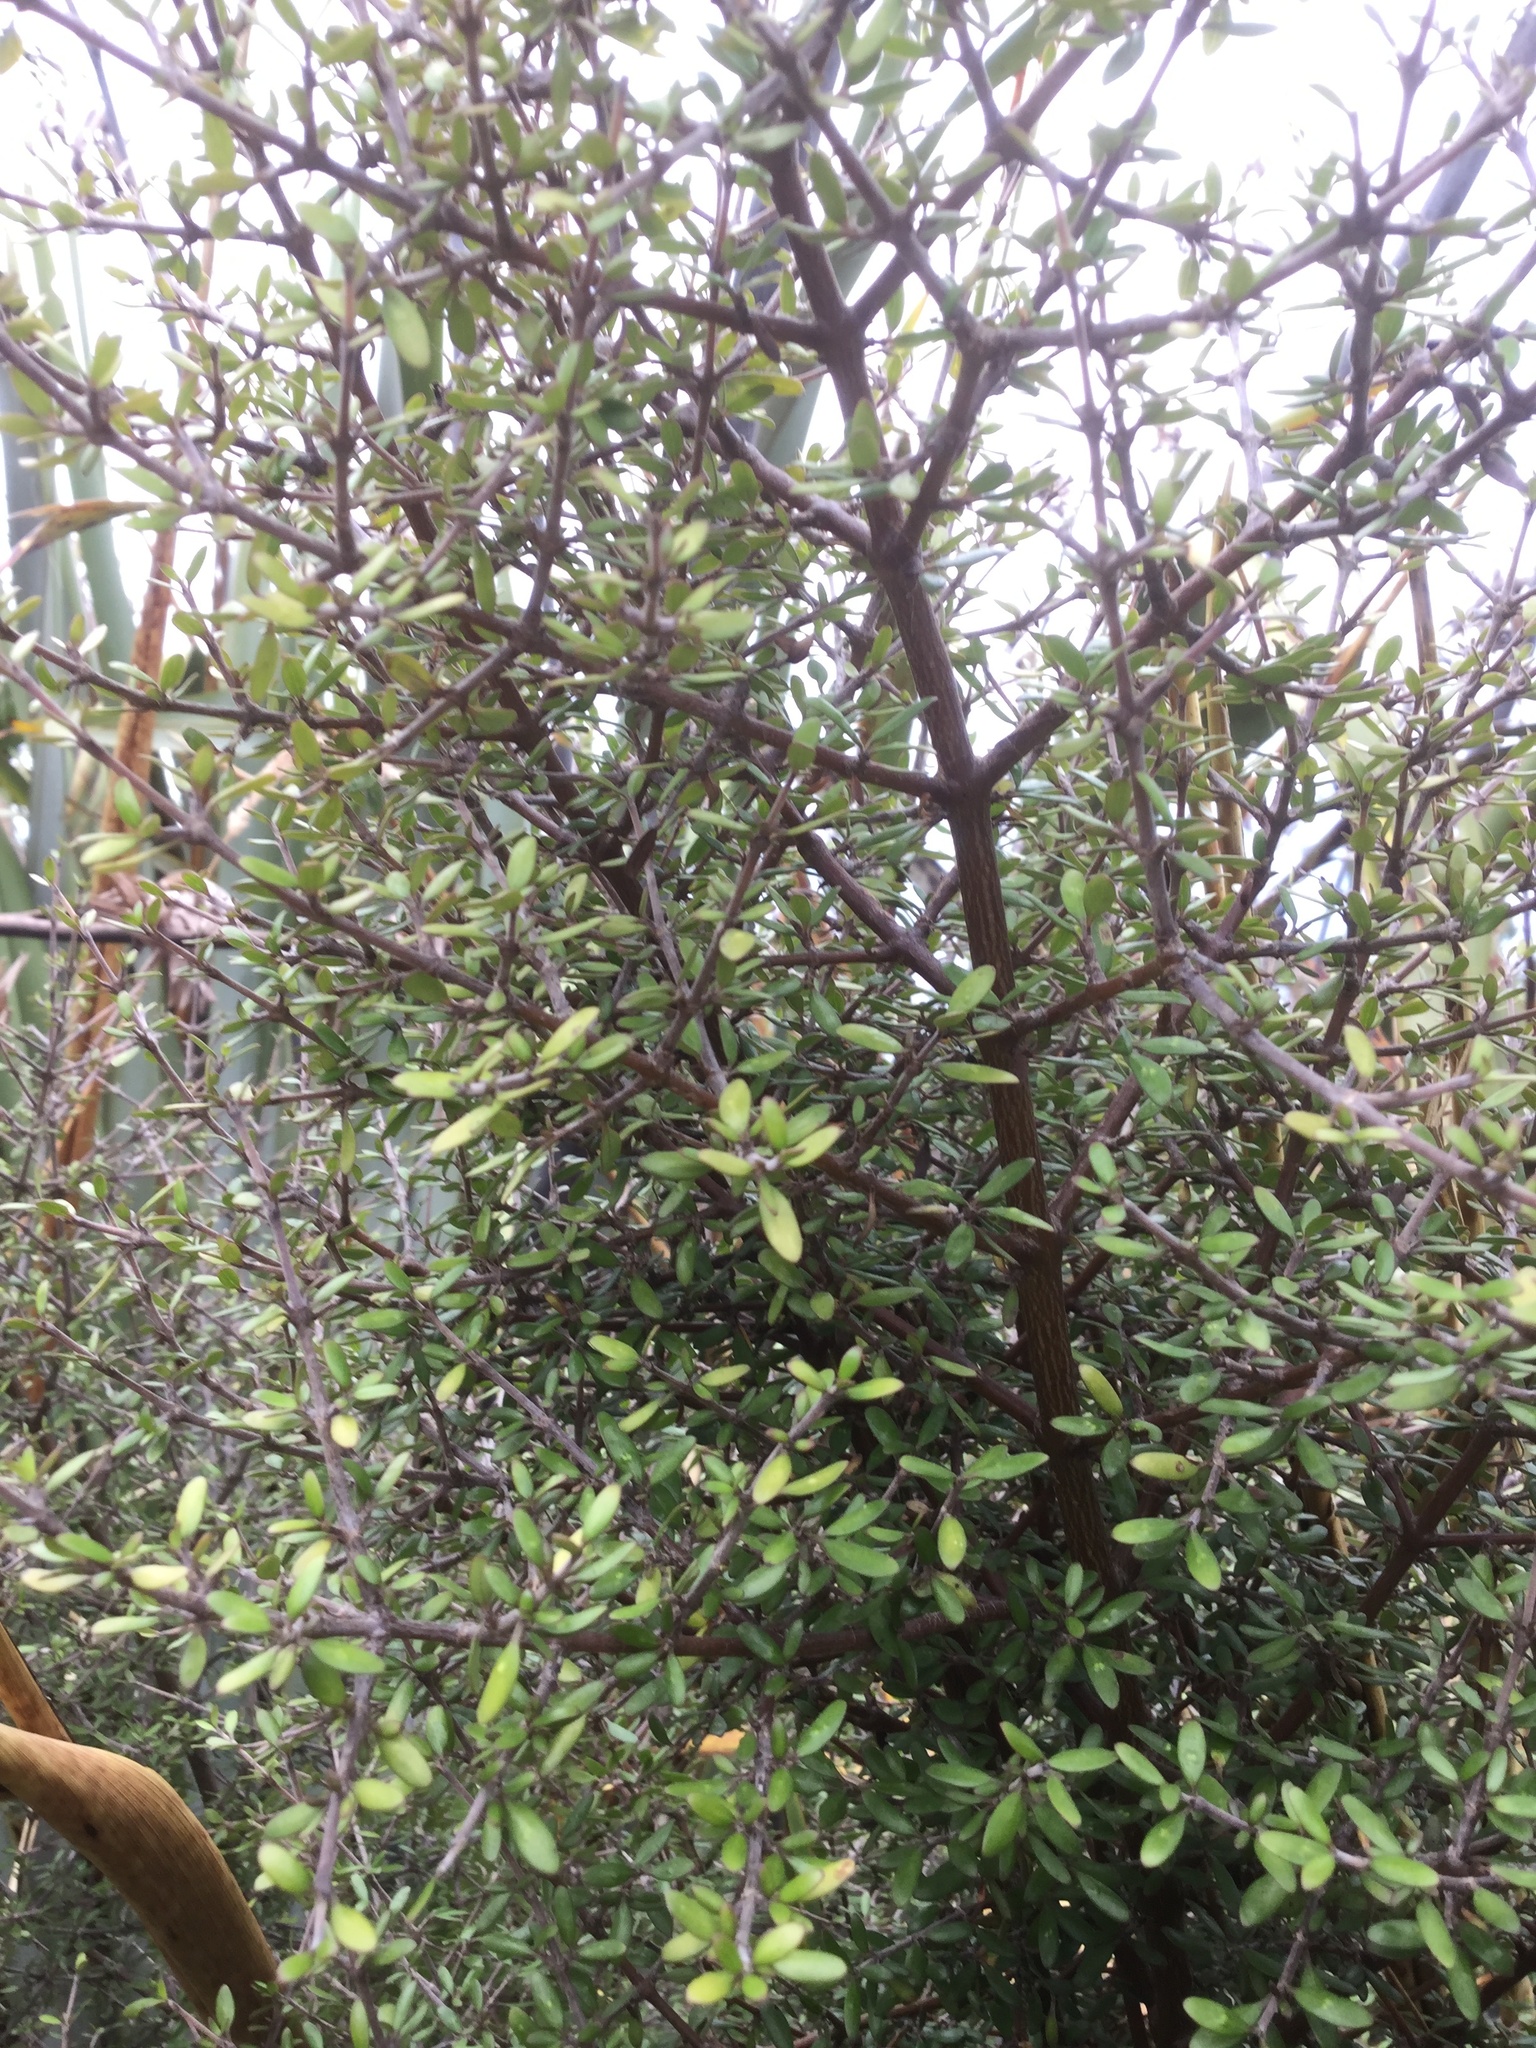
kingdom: Plantae
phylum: Tracheophyta
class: Magnoliopsida
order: Gentianales
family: Rubiaceae
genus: Coprosma
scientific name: Coprosma propinqua
